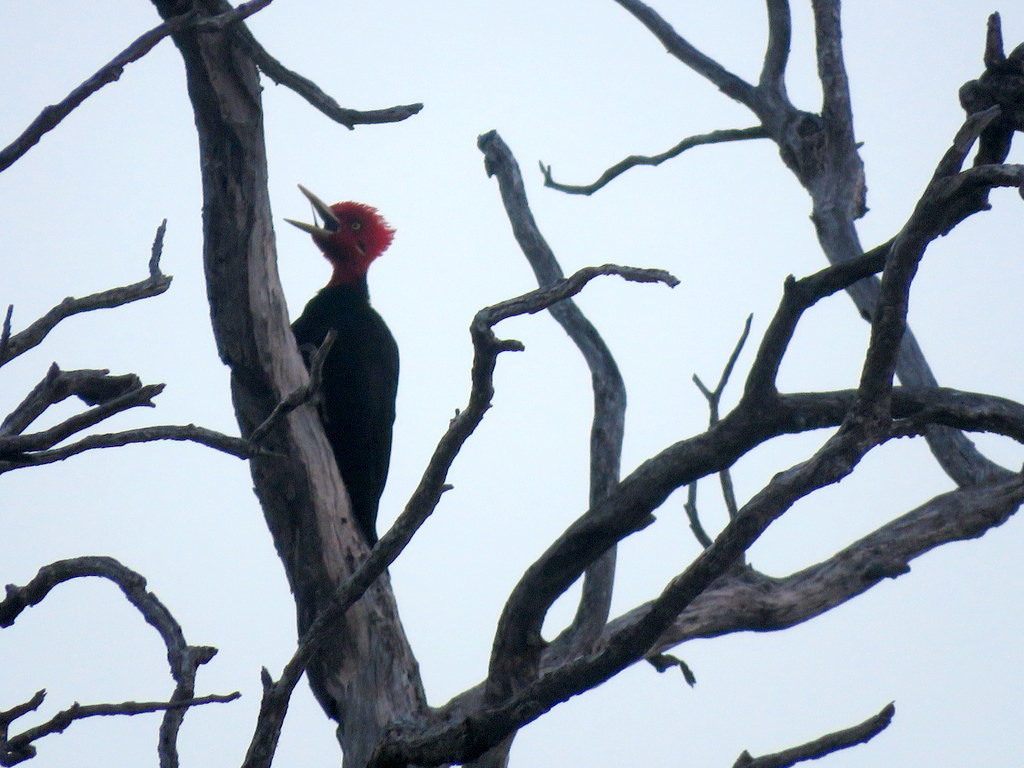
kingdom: Animalia
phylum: Chordata
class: Aves
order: Piciformes
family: Picidae
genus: Campephilus
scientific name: Campephilus leucopogon
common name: Cream-backed woodpecker
